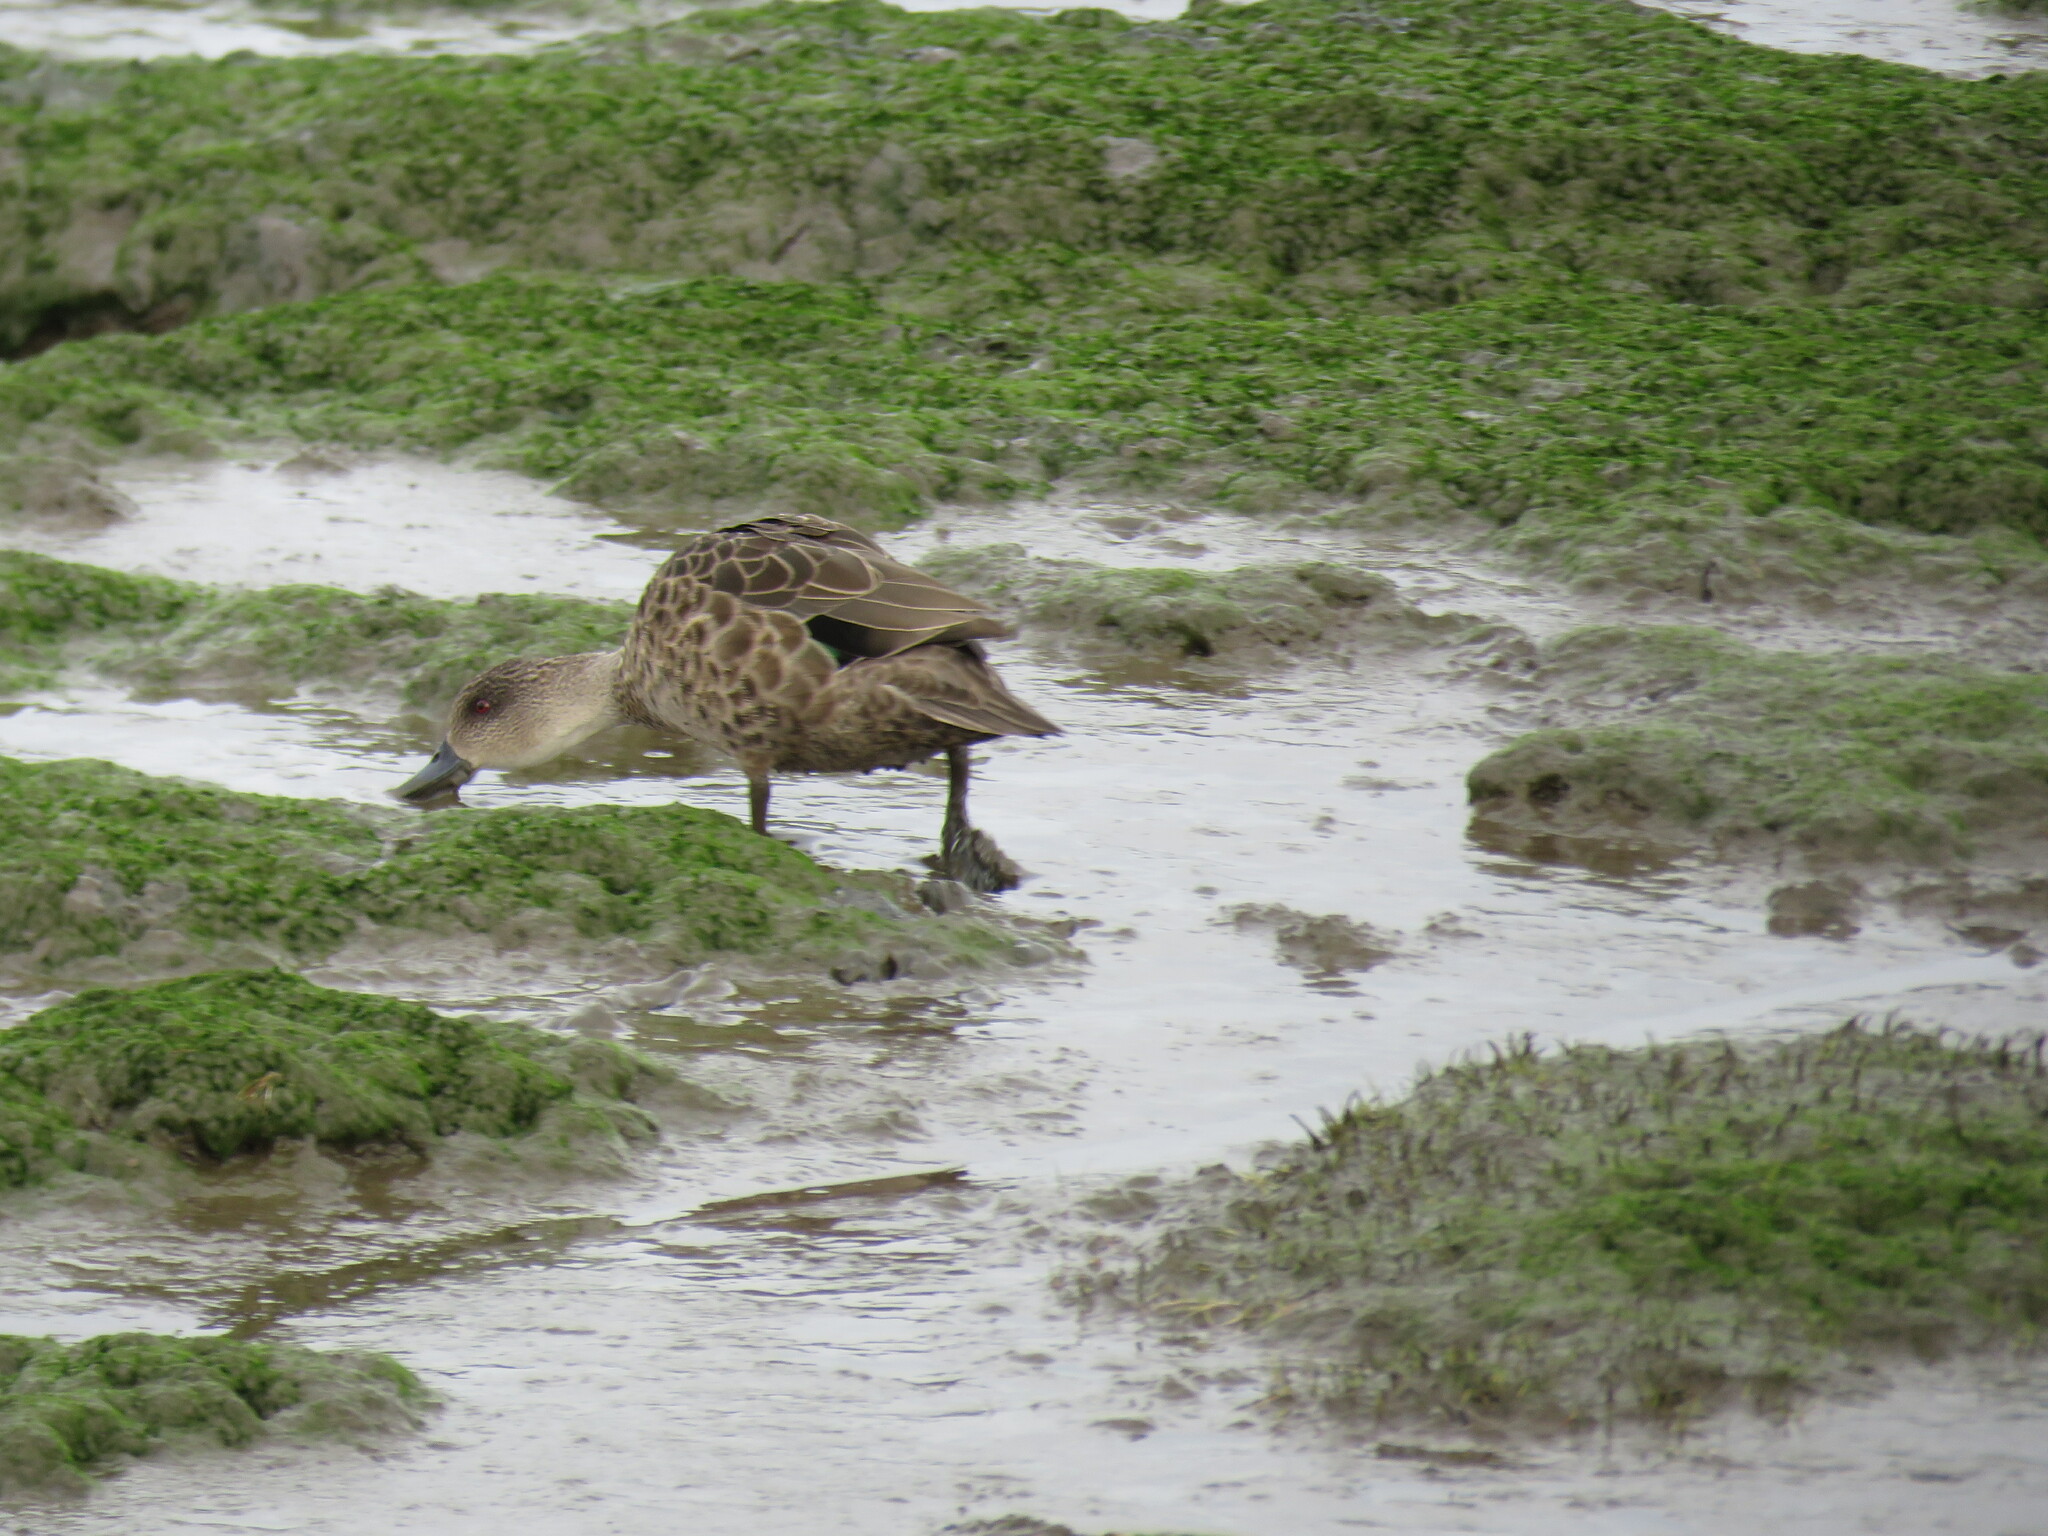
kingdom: Animalia
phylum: Chordata
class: Aves
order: Anseriformes
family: Anatidae
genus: Anas
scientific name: Anas gracilis
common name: Grey teal
